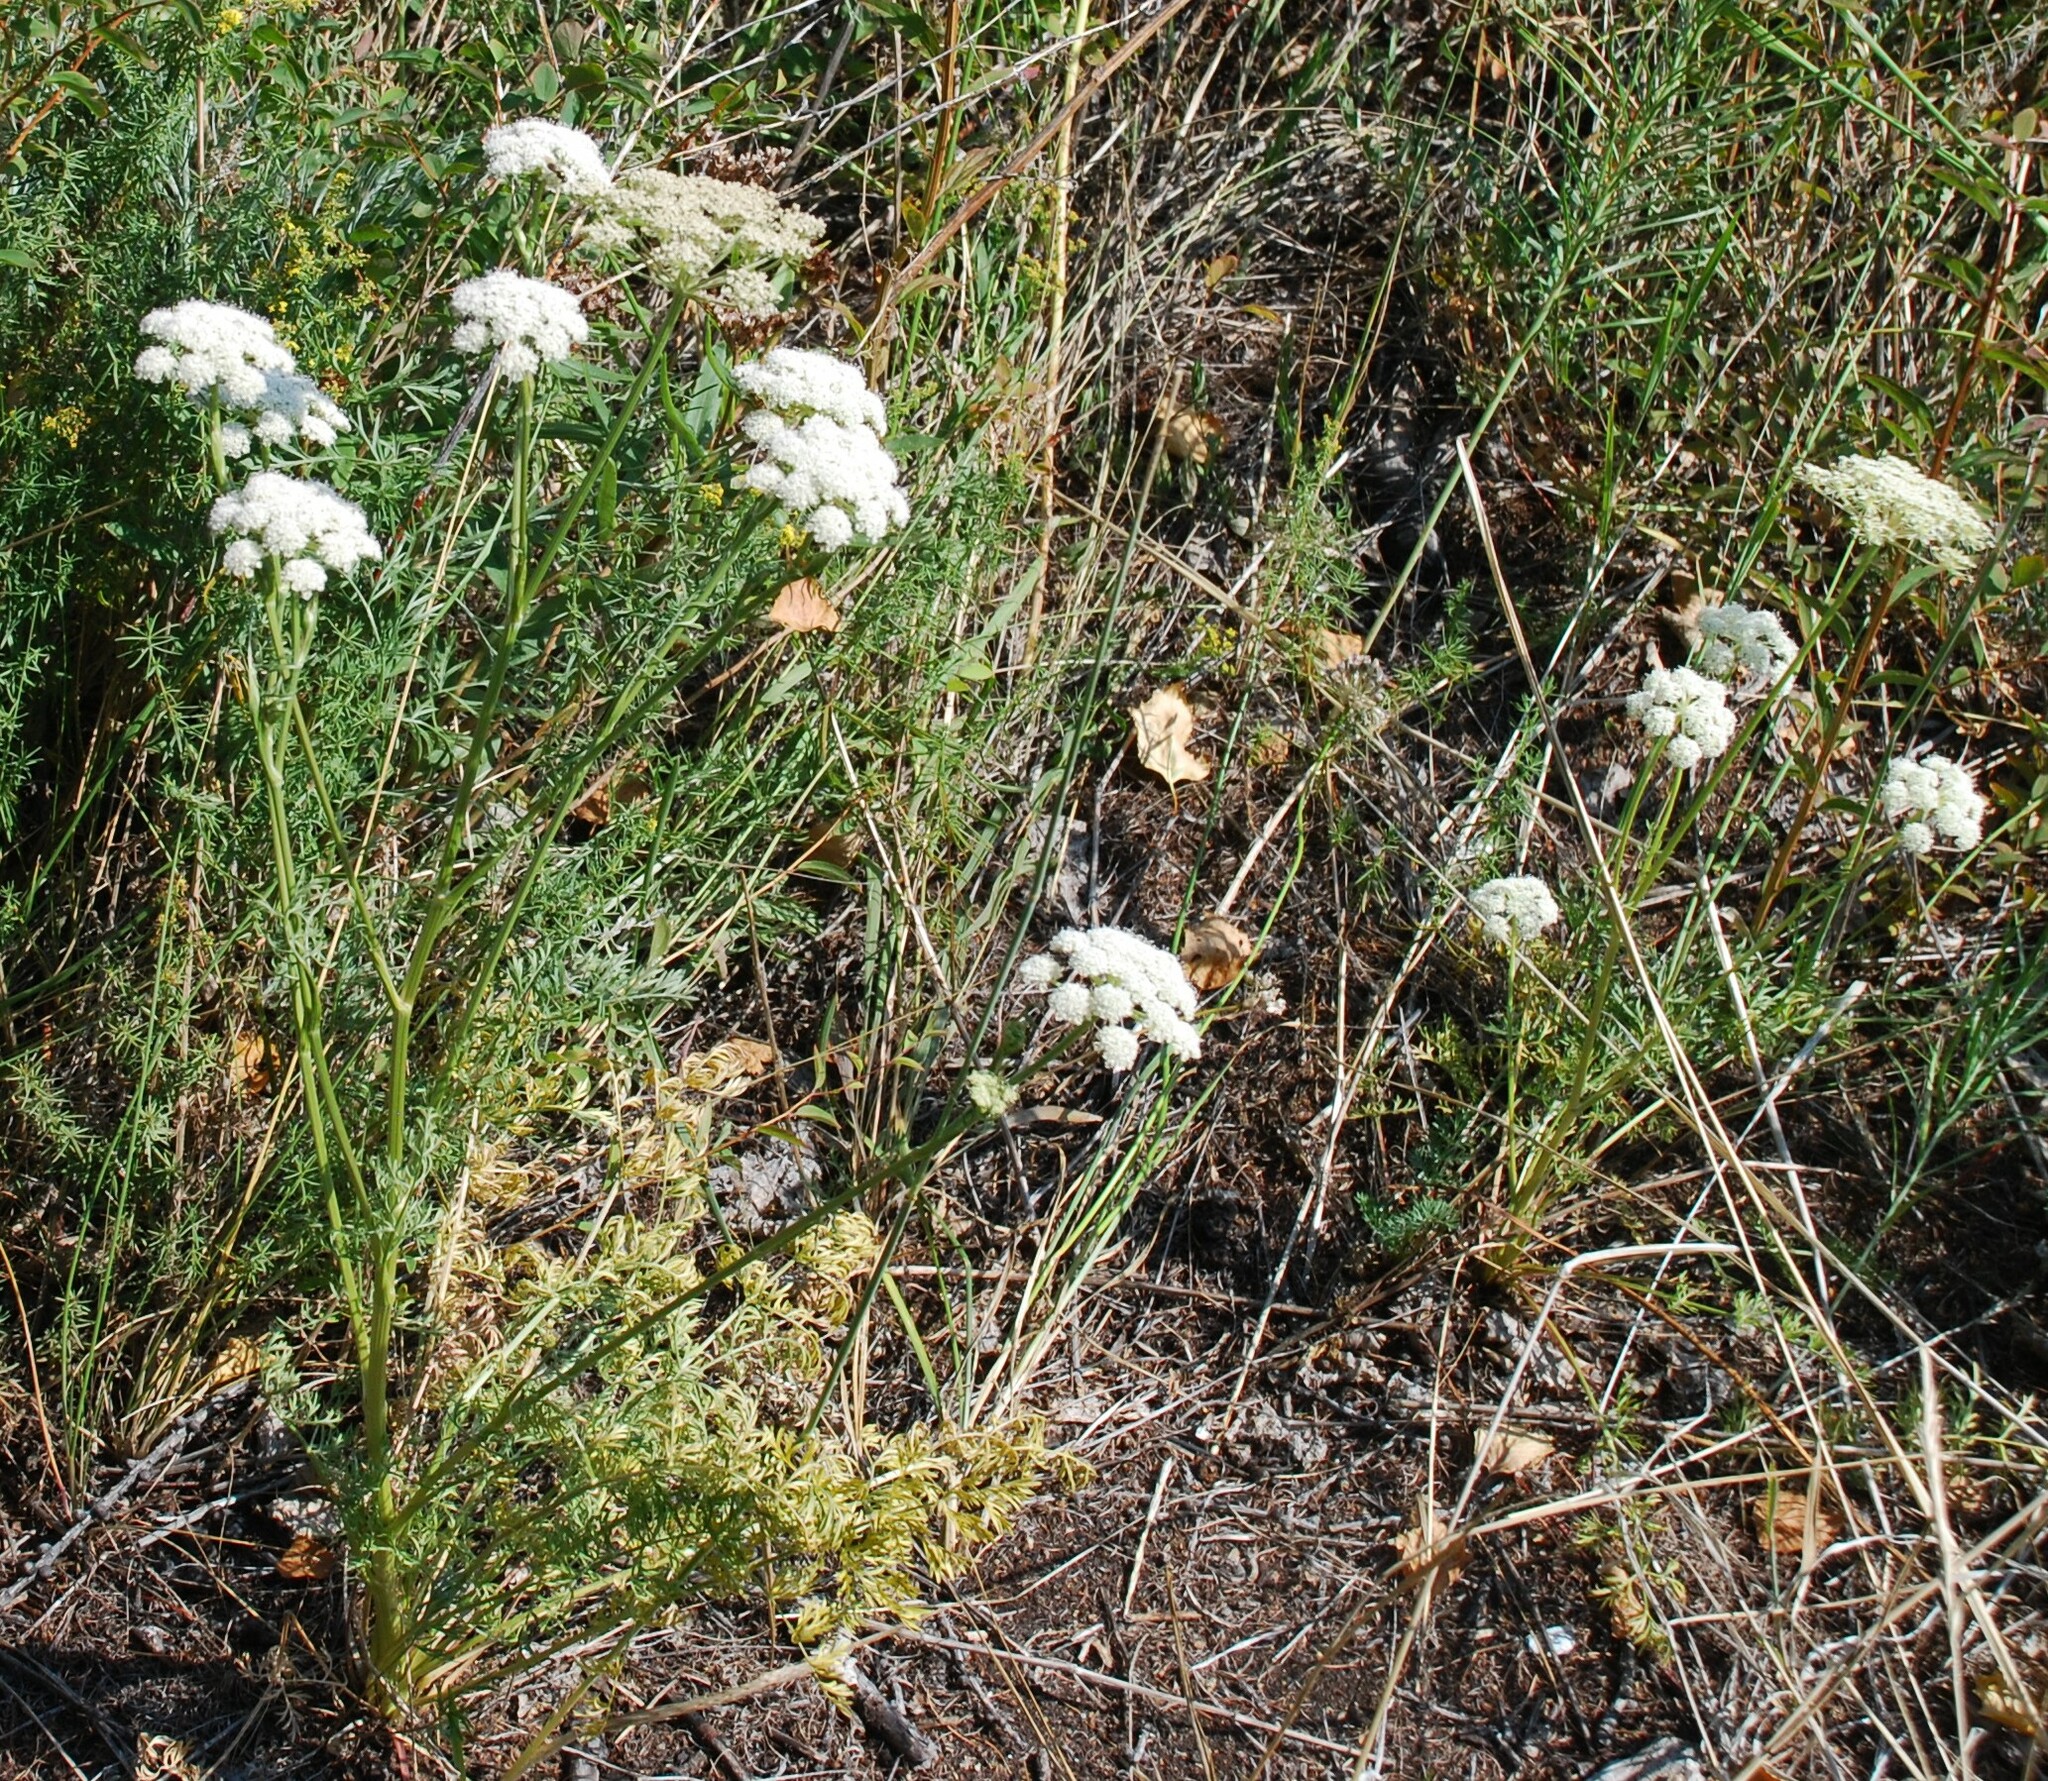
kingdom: Plantae
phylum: Tracheophyta
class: Magnoliopsida
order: Apiales
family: Apiaceae
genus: Kitagawia
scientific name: Kitagawia baicalensis
